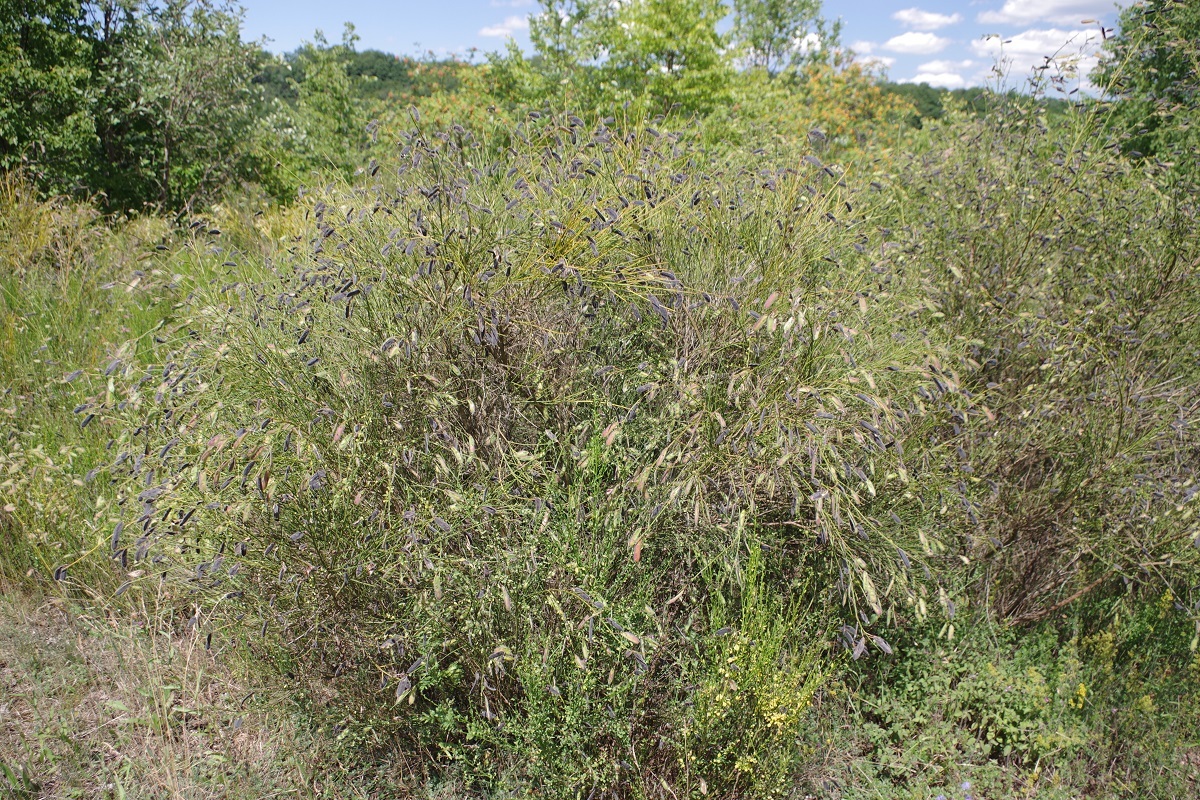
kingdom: Plantae
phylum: Tracheophyta
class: Magnoliopsida
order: Fabales
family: Fabaceae
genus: Cytisus
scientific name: Cytisus scoparius
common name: Scotch broom
